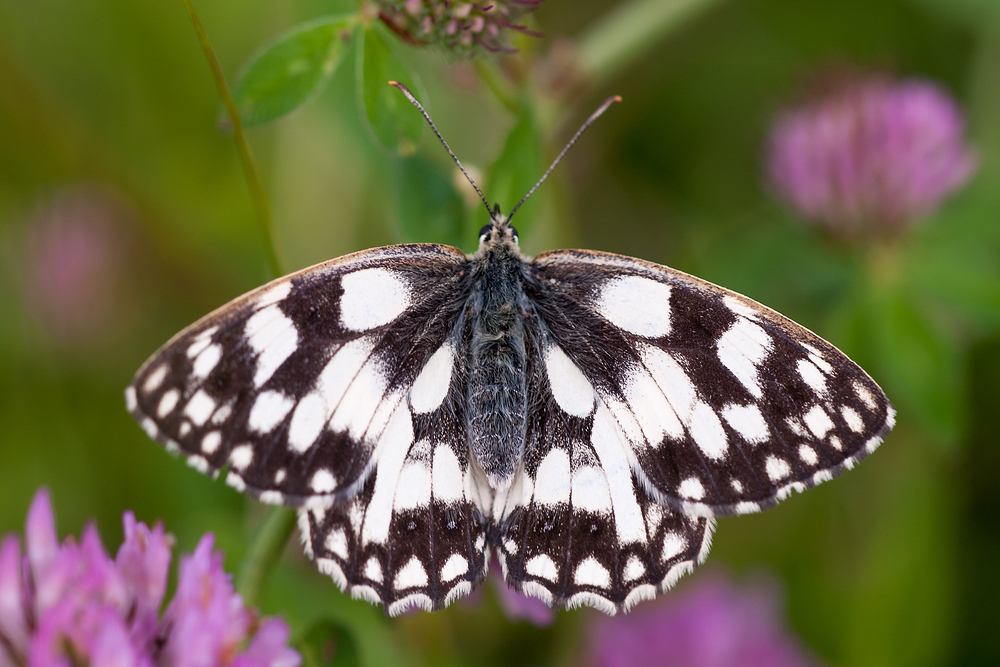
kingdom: Animalia
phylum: Arthropoda
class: Insecta
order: Lepidoptera
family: Nymphalidae
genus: Melanargia
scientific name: Melanargia galathea
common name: Marbled white
